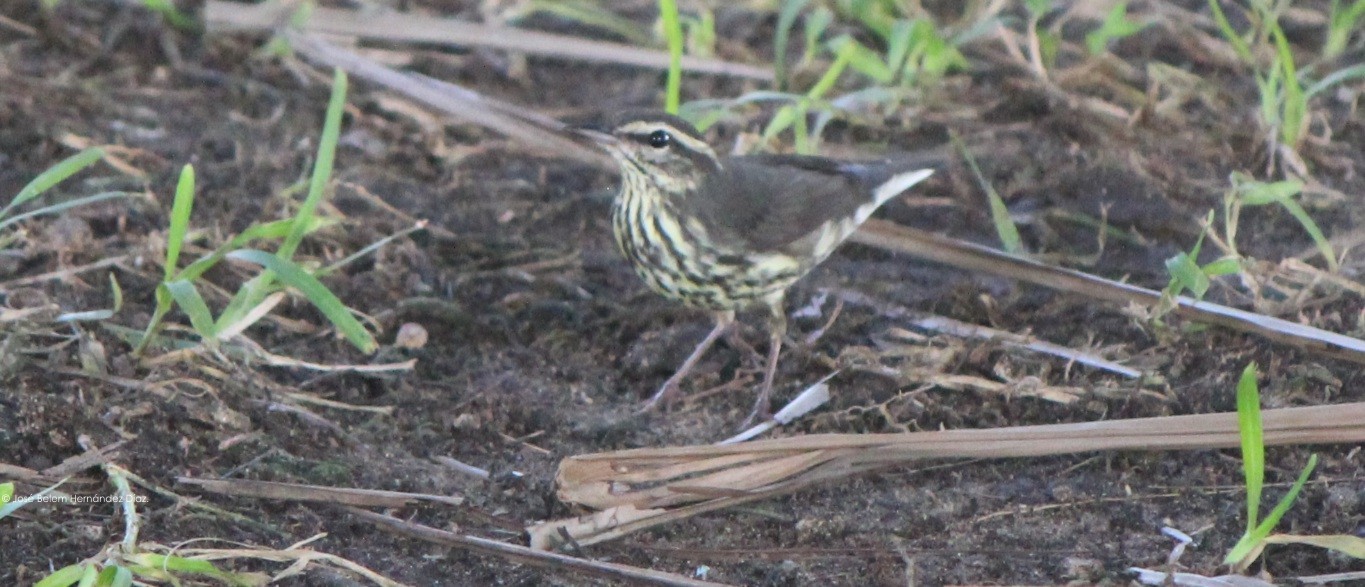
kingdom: Animalia
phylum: Chordata
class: Aves
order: Passeriformes
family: Parulidae
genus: Parkesia
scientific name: Parkesia noveboracensis
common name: Northern waterthrush
